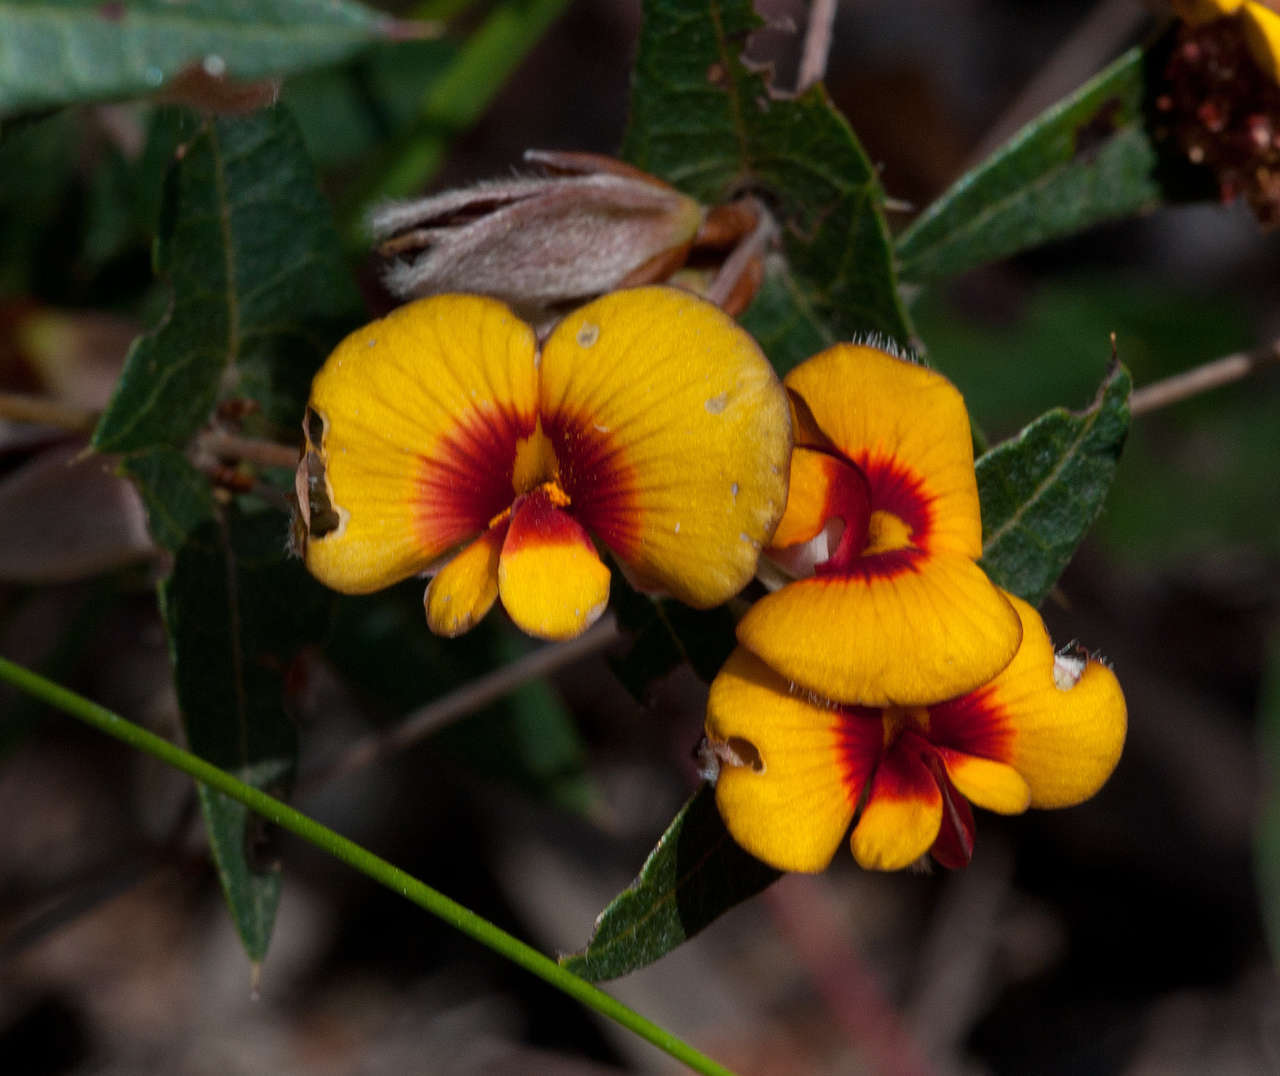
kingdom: Plantae
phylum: Tracheophyta
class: Magnoliopsida
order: Fabales
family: Fabaceae
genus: Platylobium
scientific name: Platylobium obtusangulum
